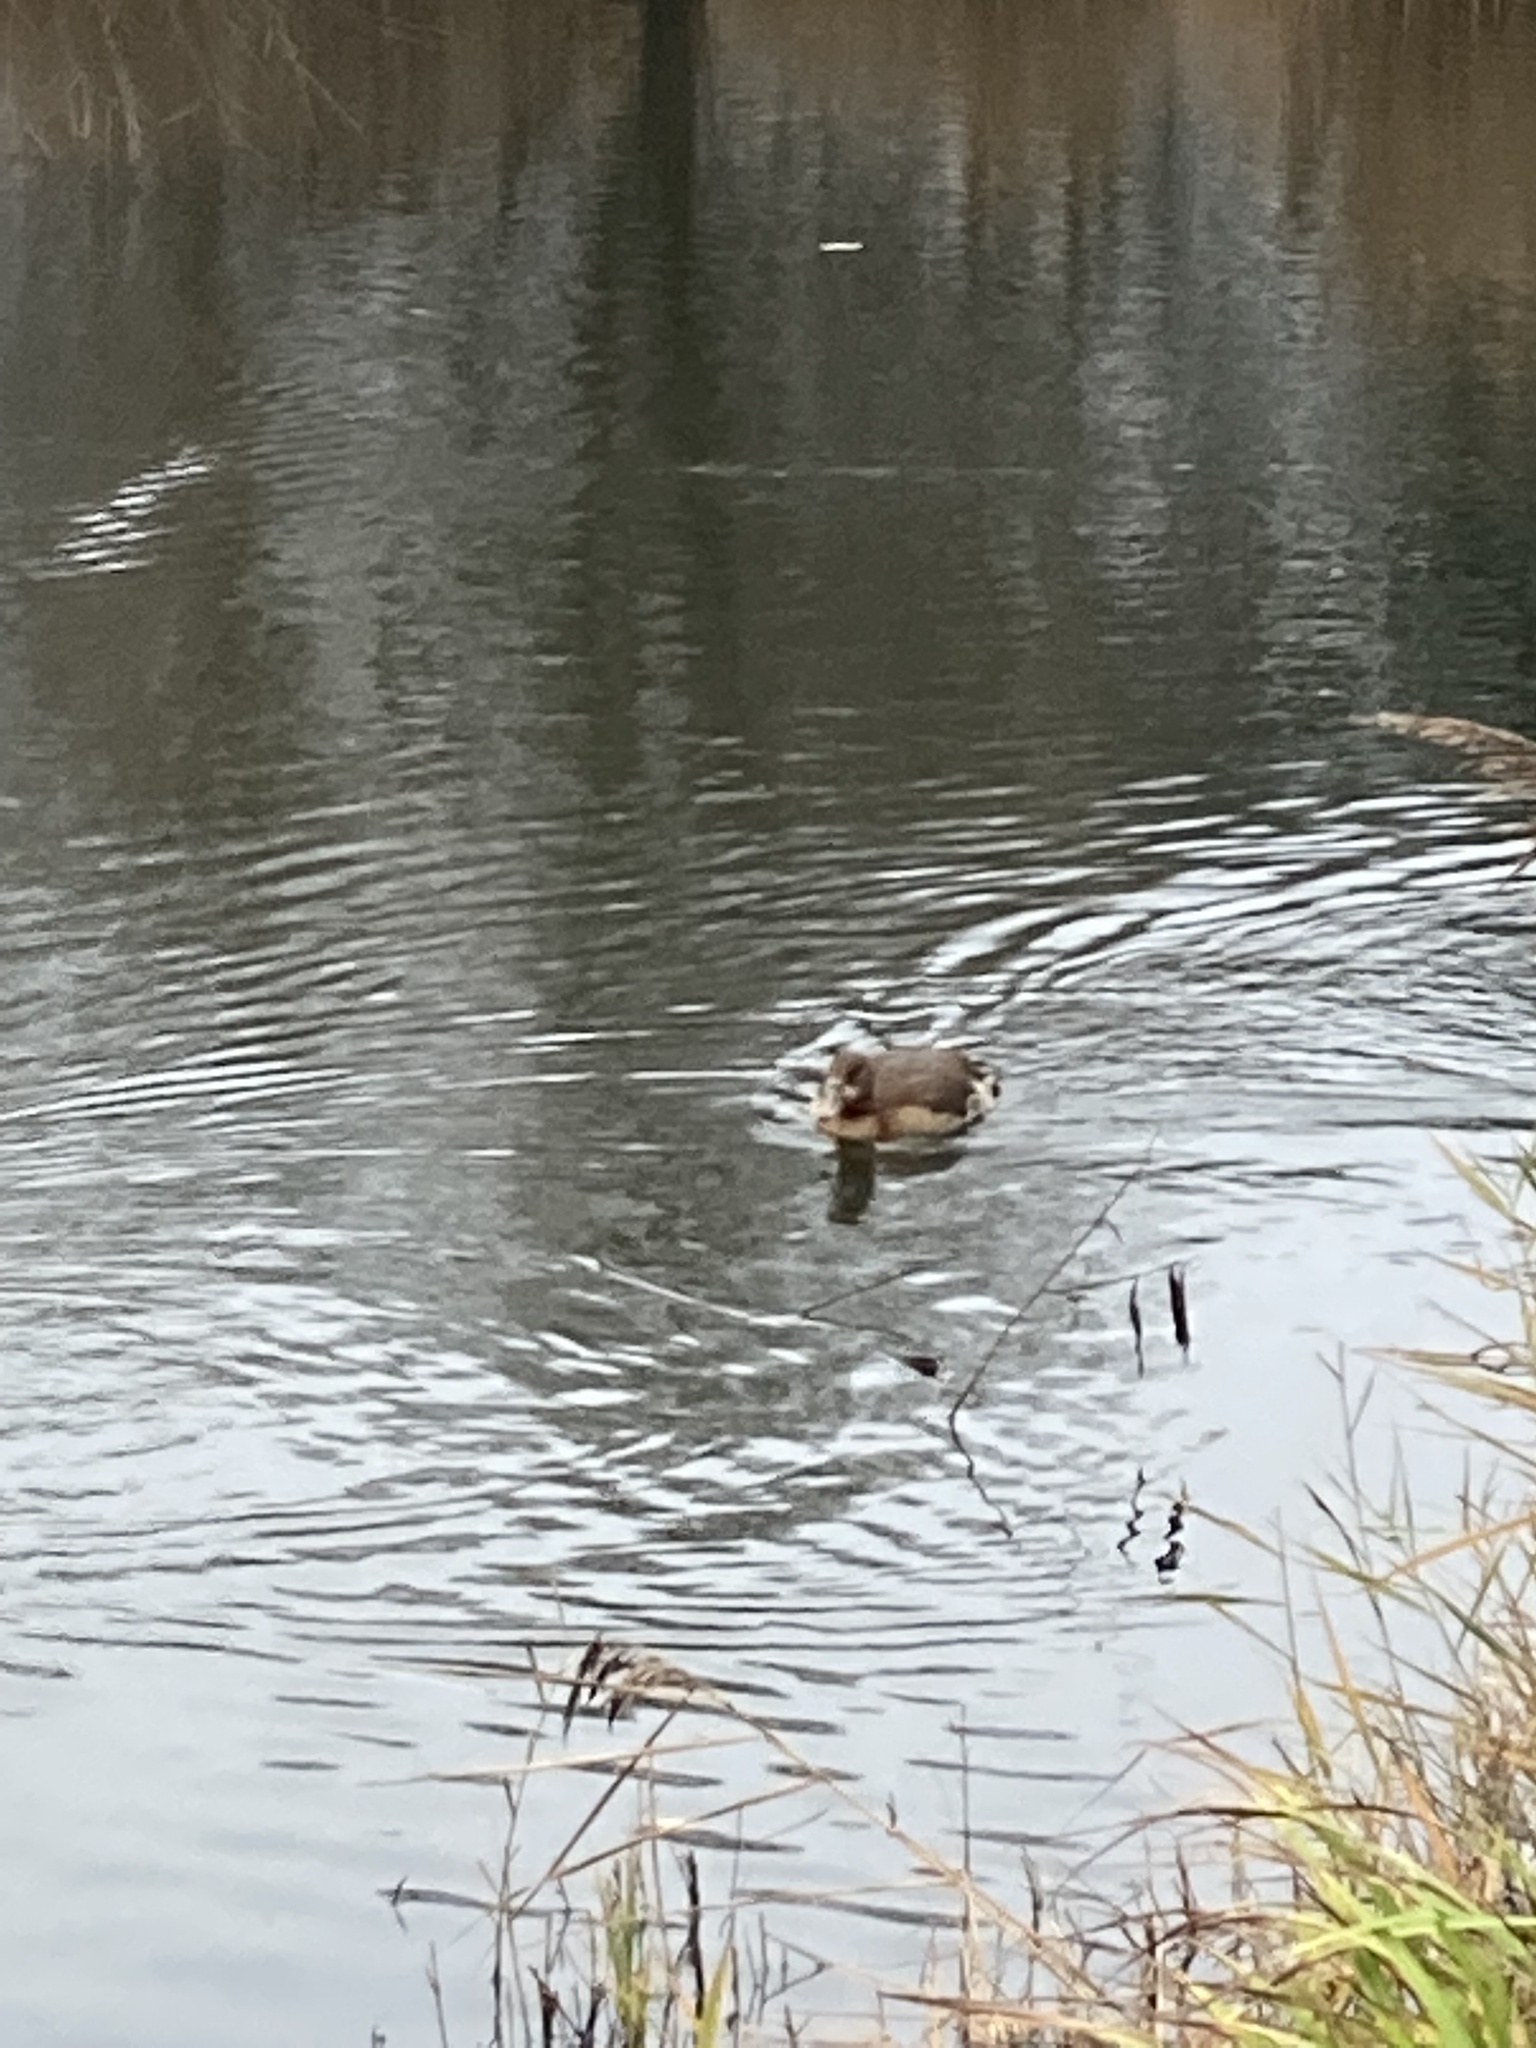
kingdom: Animalia
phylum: Chordata
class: Aves
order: Anseriformes
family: Anatidae
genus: Alopochen
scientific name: Alopochen aegyptiaca
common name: Egyptian goose
